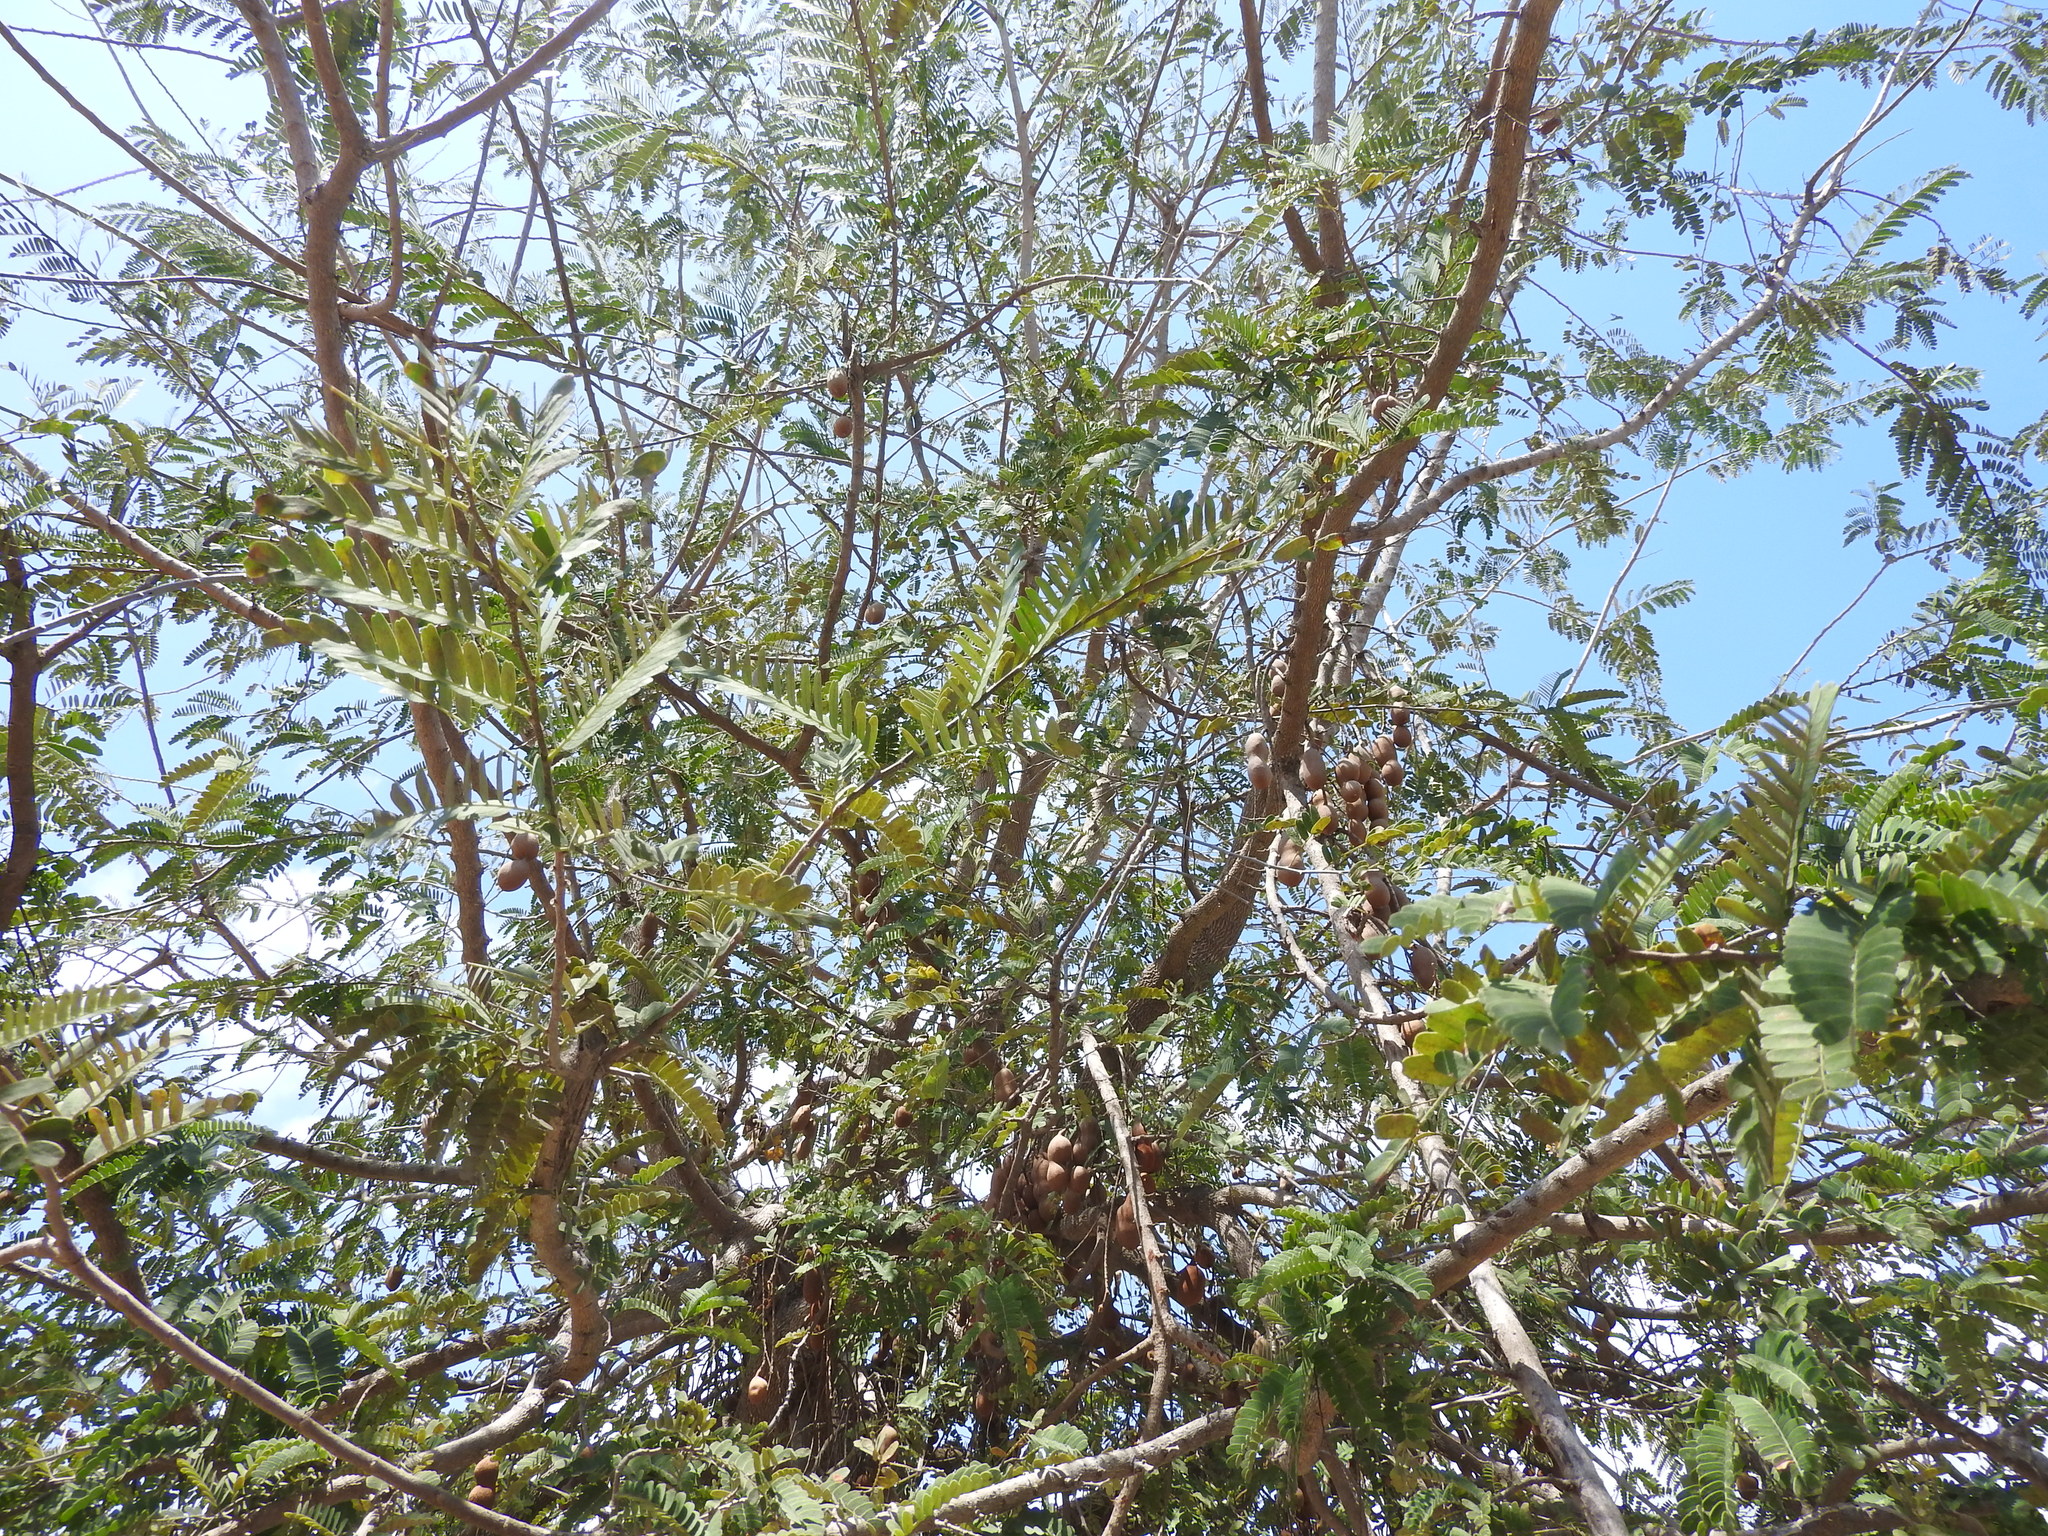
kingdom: Plantae
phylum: Tracheophyta
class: Magnoliopsida
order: Fabales
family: Fabaceae
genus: Tamarindus
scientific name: Tamarindus indica
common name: Tamarind
